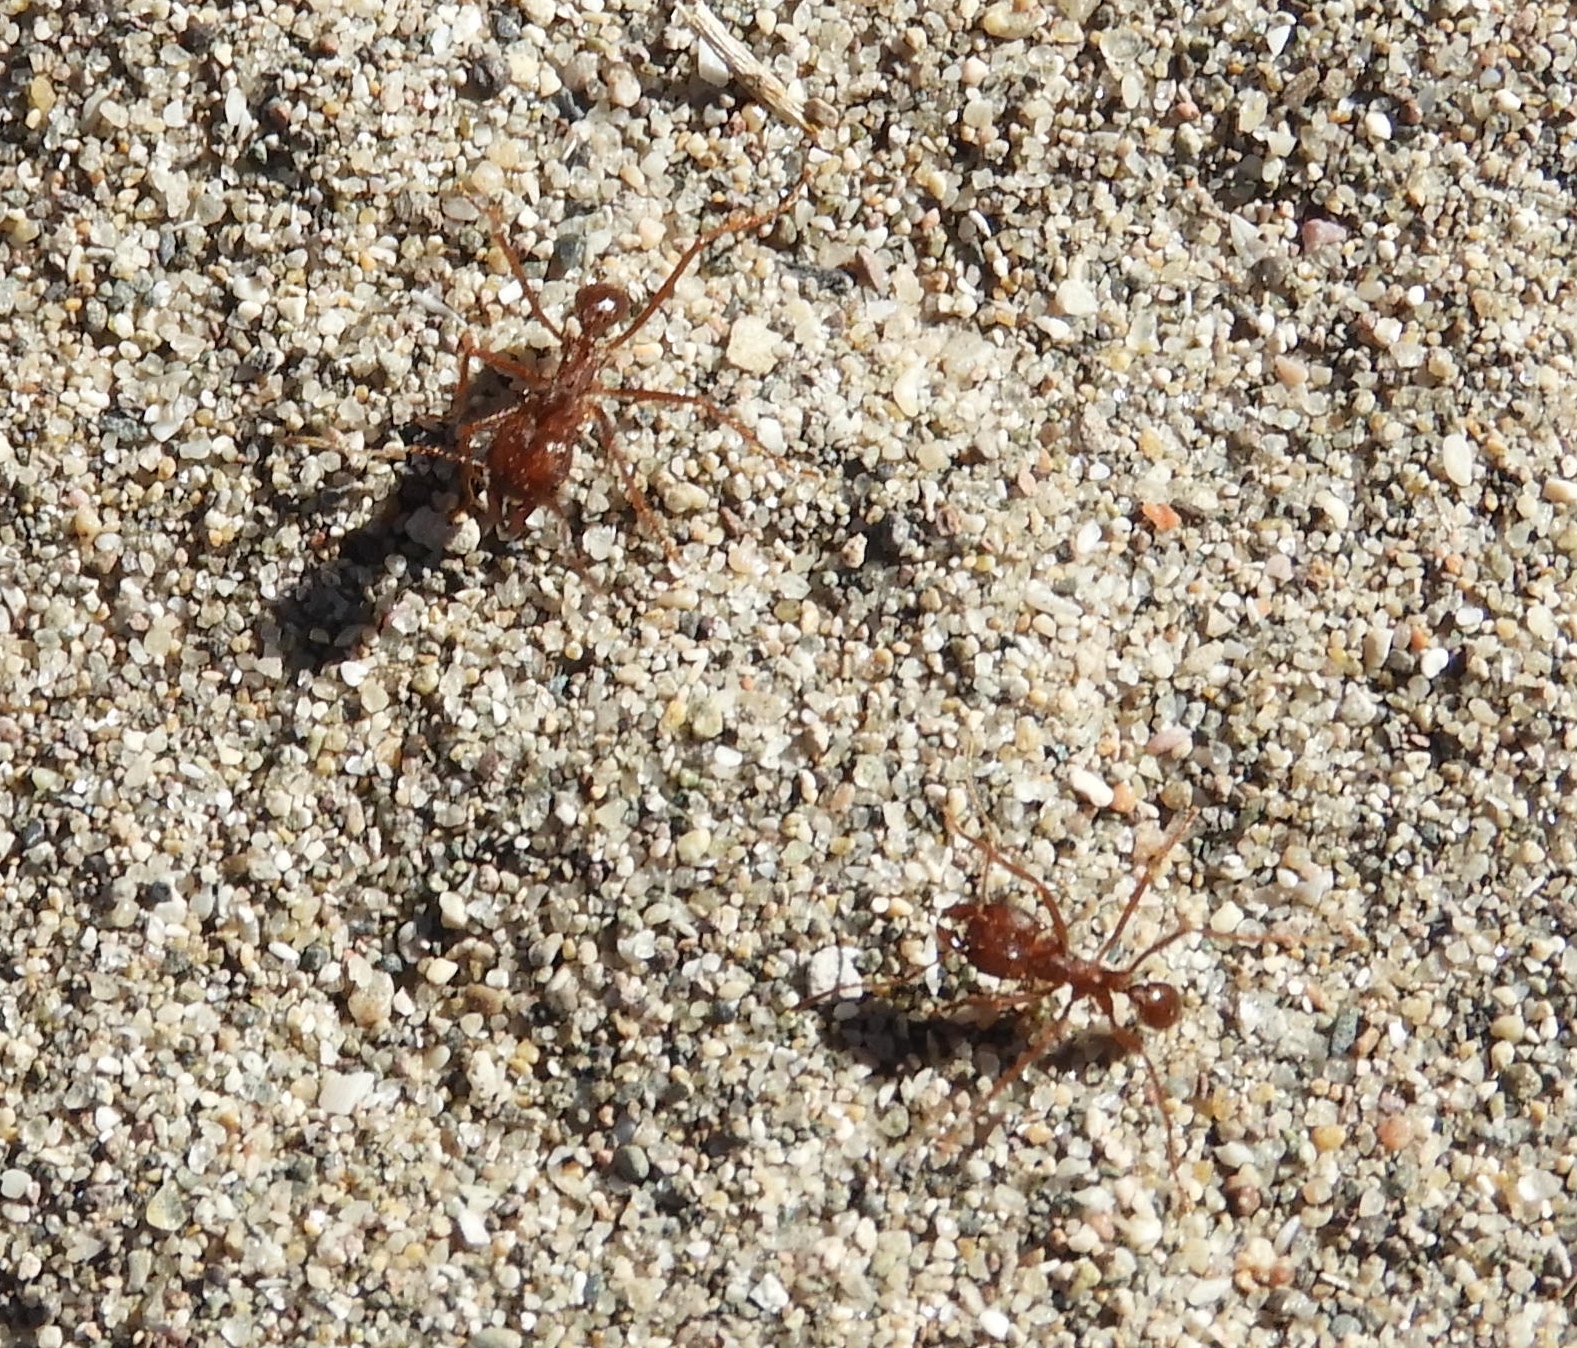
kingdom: Animalia
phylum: Arthropoda
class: Insecta
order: Hymenoptera
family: Formicidae
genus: Atta
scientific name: Atta mexicana
